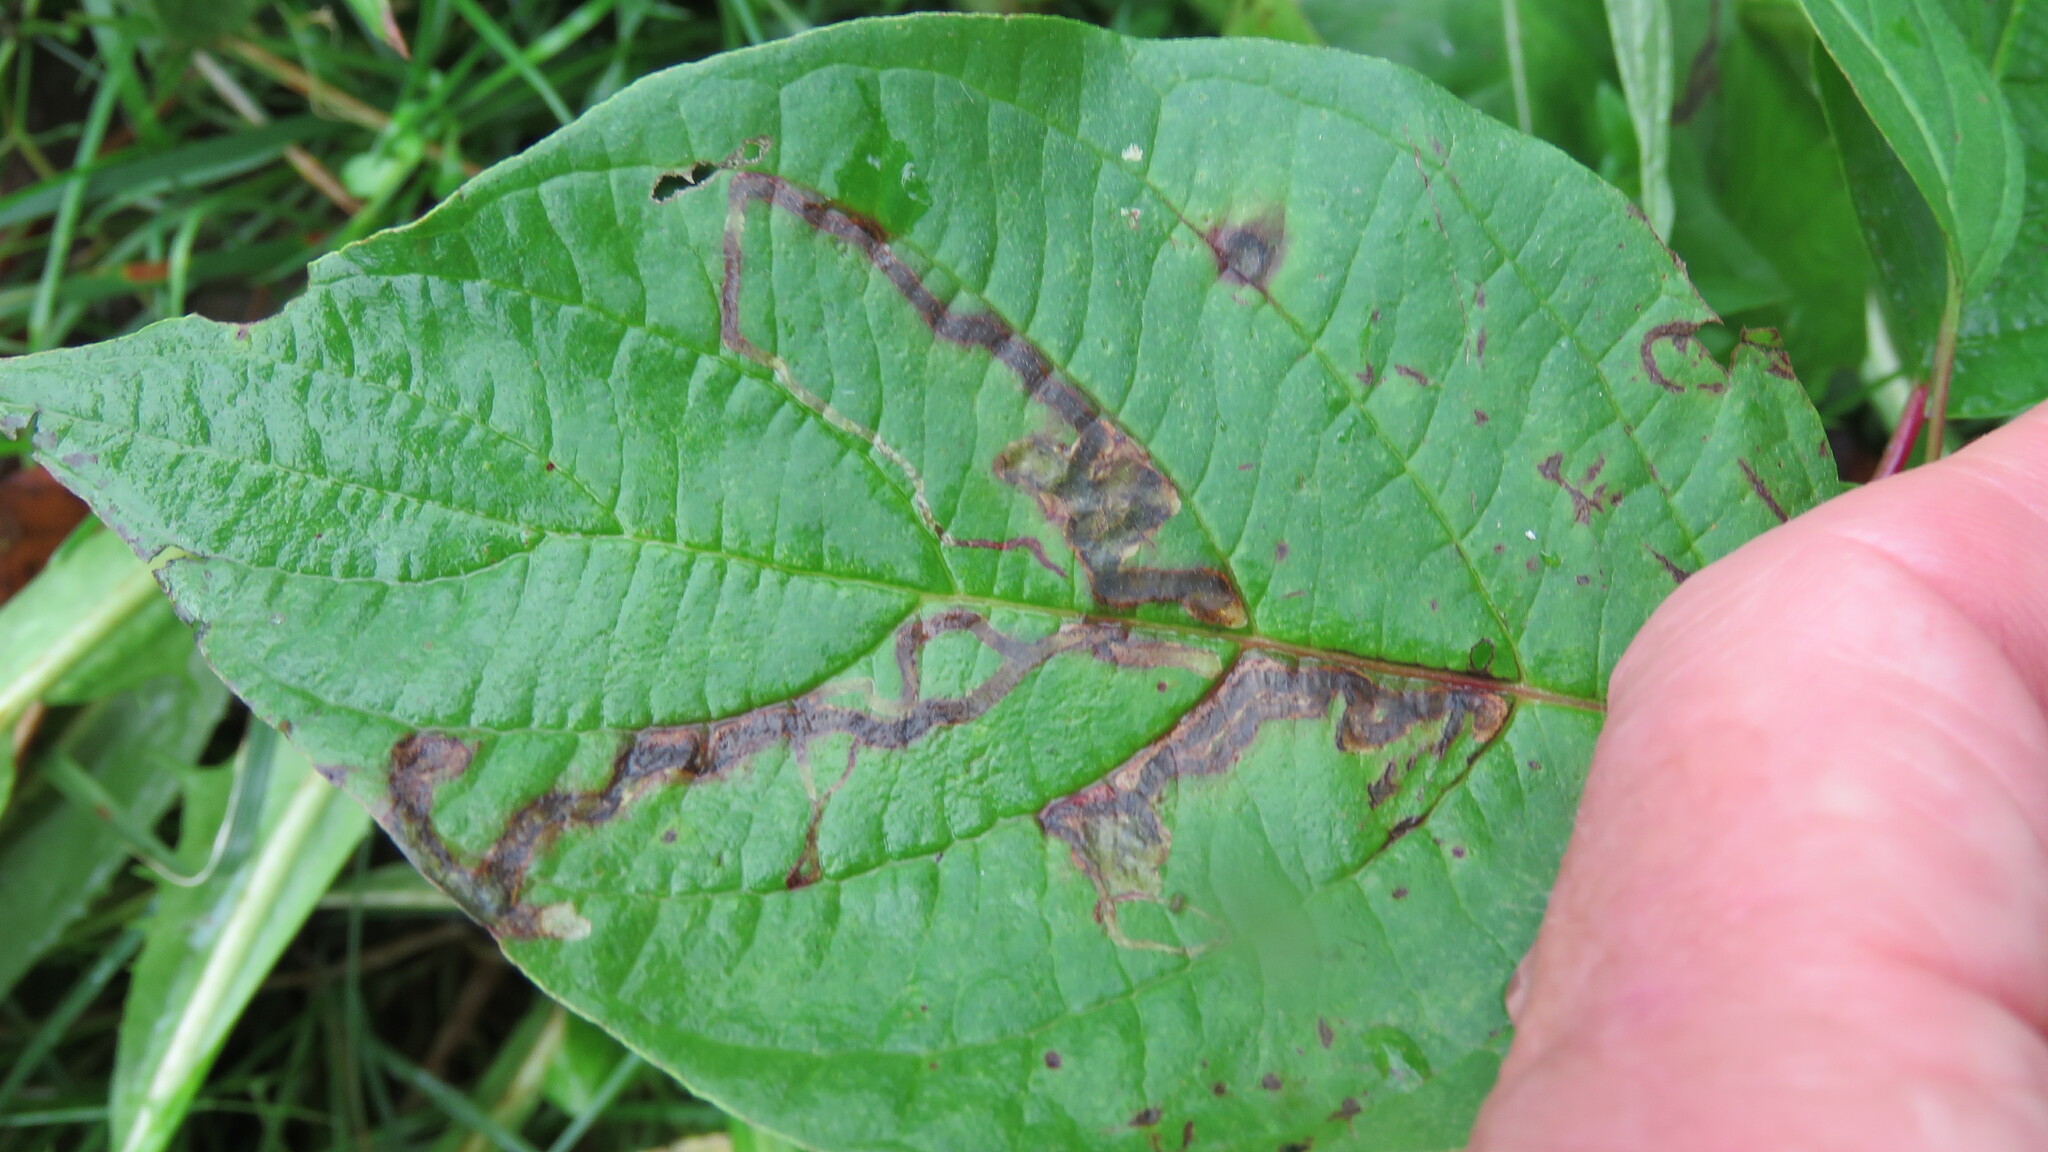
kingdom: Animalia
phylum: Arthropoda
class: Insecta
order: Diptera
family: Agromyzidae
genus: Phytomyza
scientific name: Phytomyza agromyzina
